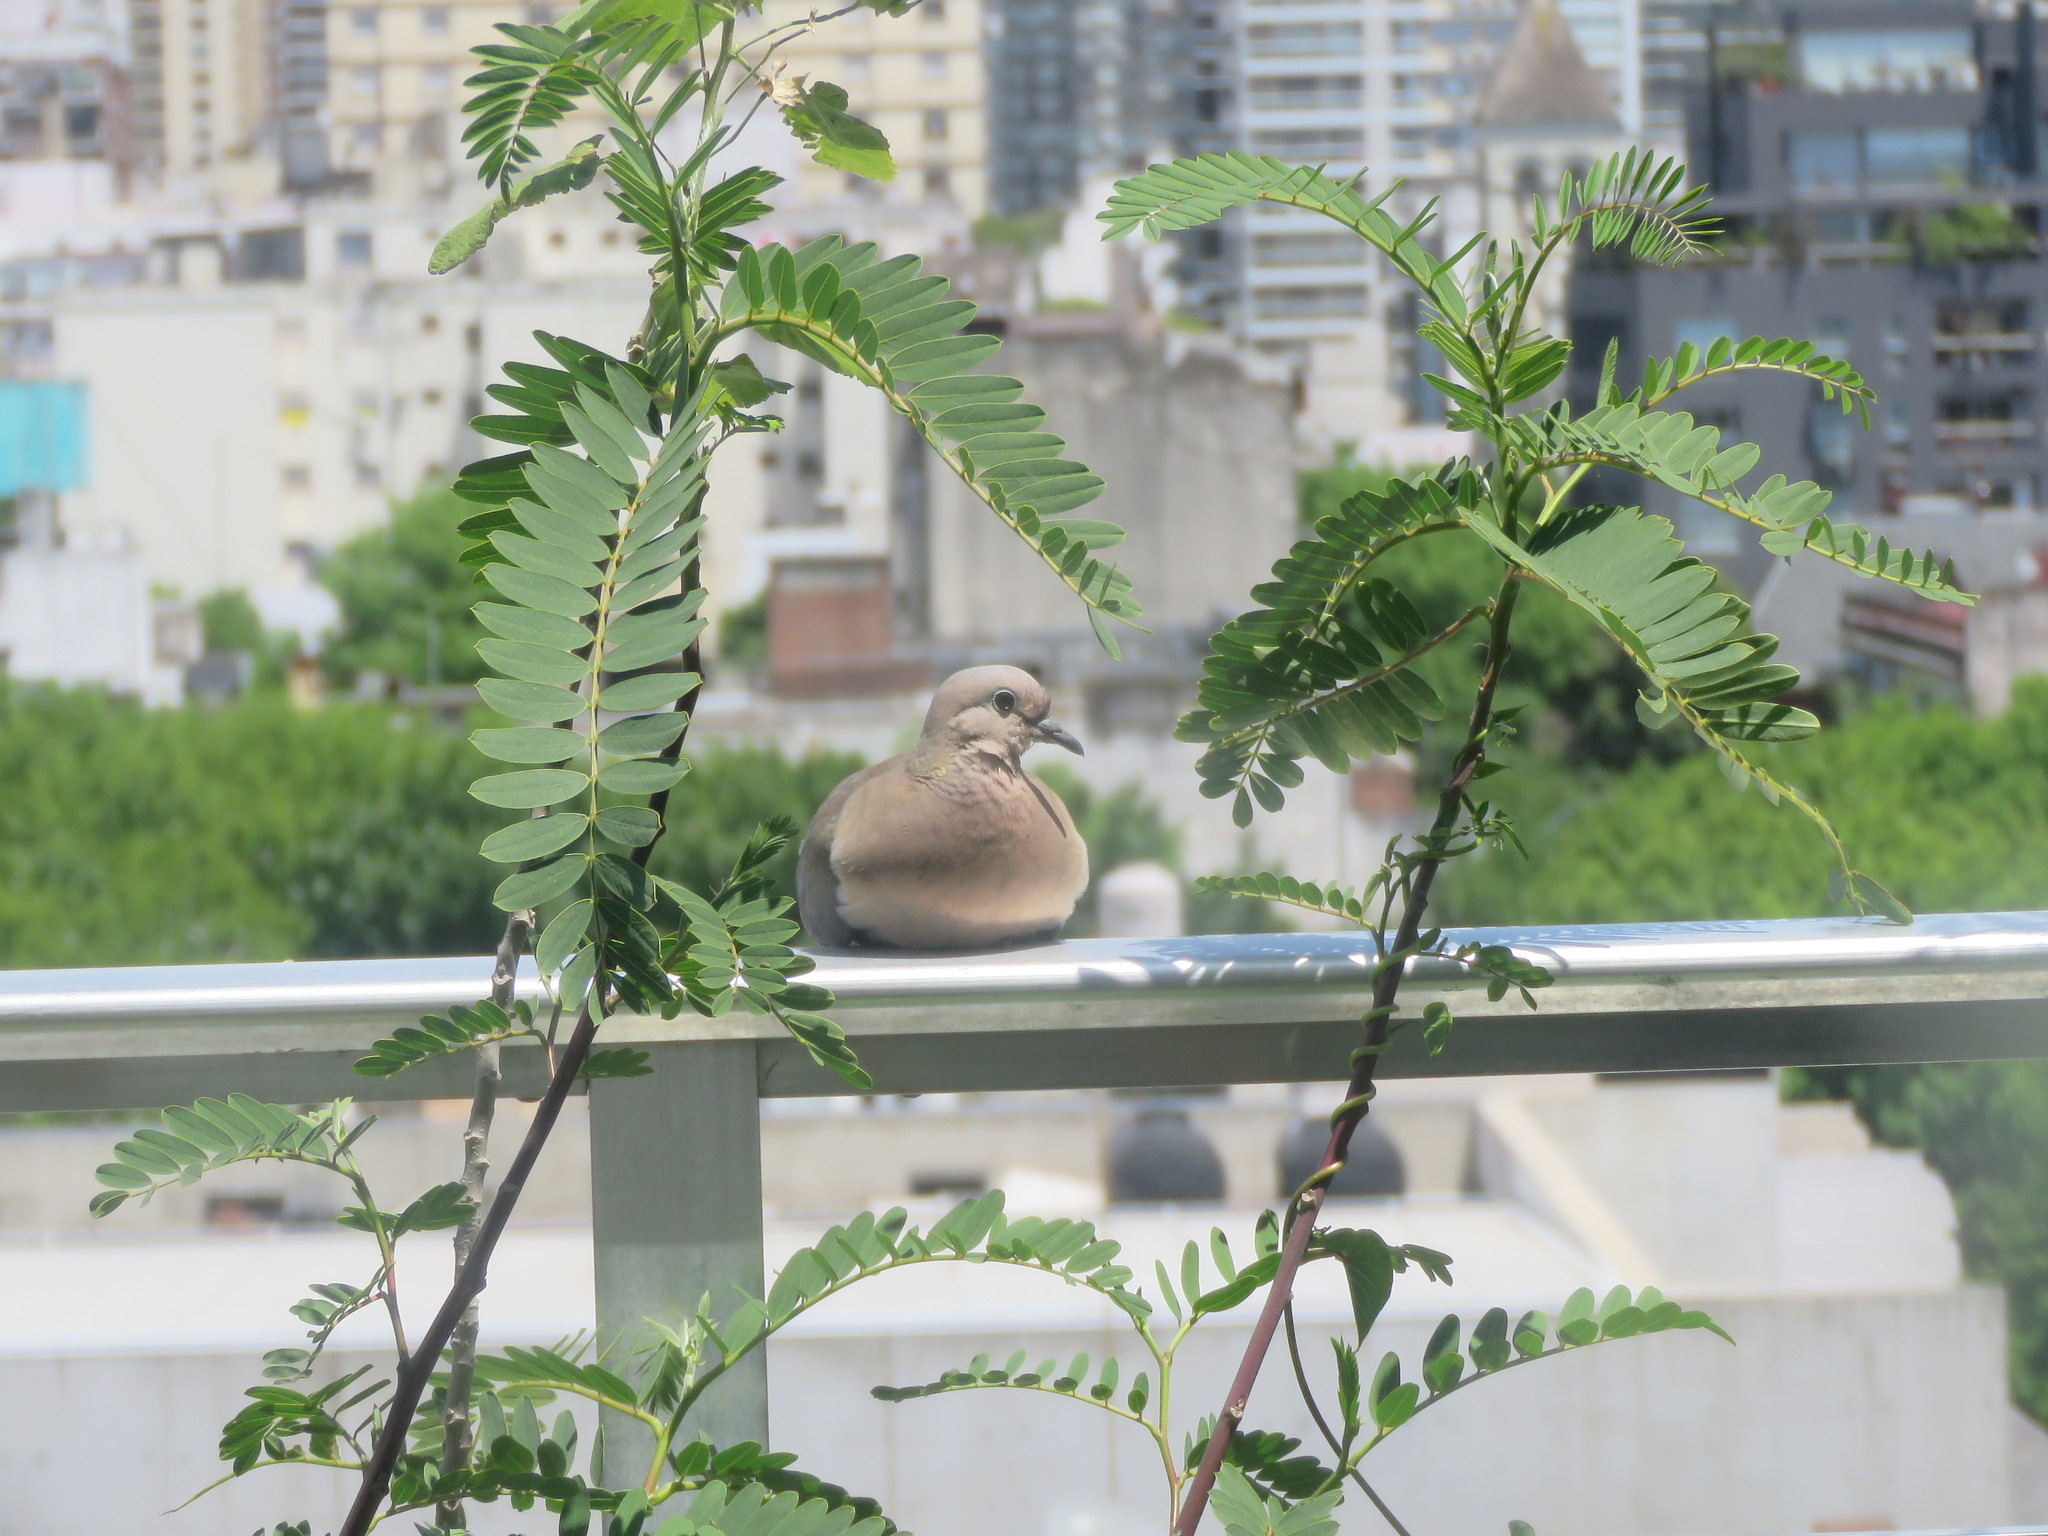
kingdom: Animalia
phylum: Chordata
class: Aves
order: Columbiformes
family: Columbidae
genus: Zenaida
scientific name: Zenaida auriculata
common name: Eared dove
